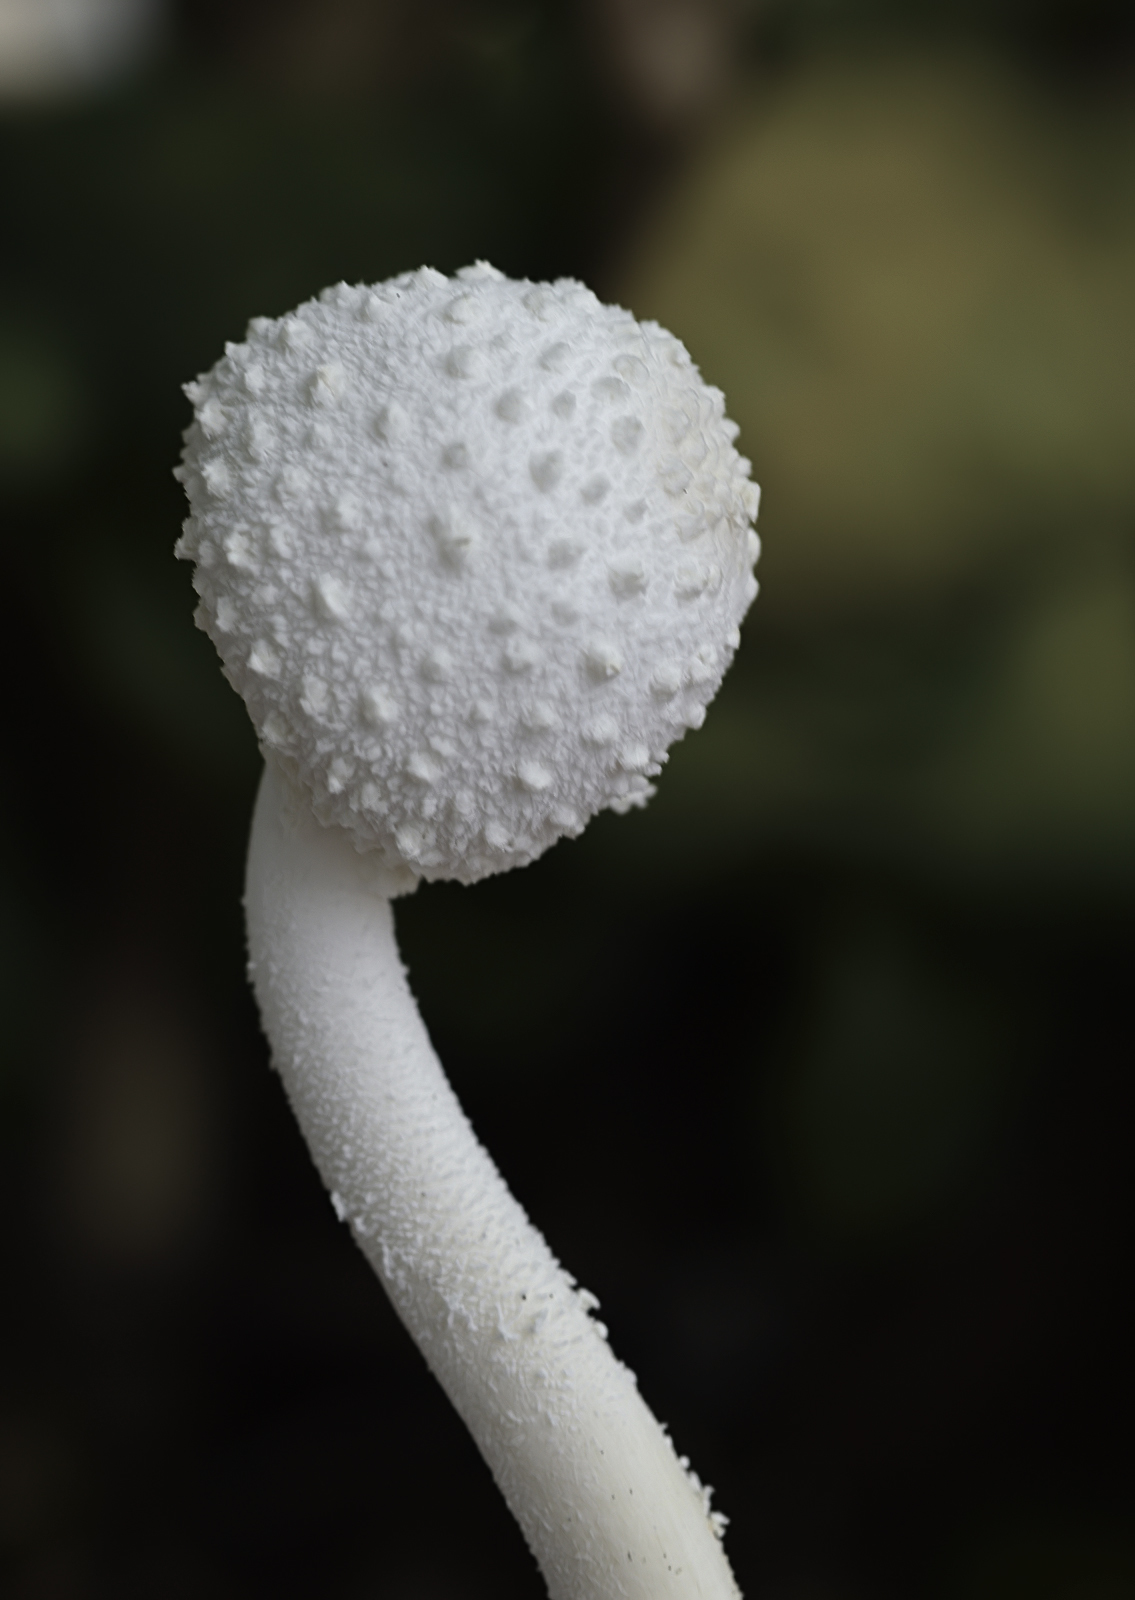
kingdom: Fungi
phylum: Basidiomycota
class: Agaricomycetes
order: Agaricales
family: Agaricaceae
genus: Leucocoprinus
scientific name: Leucocoprinus cretaceus
